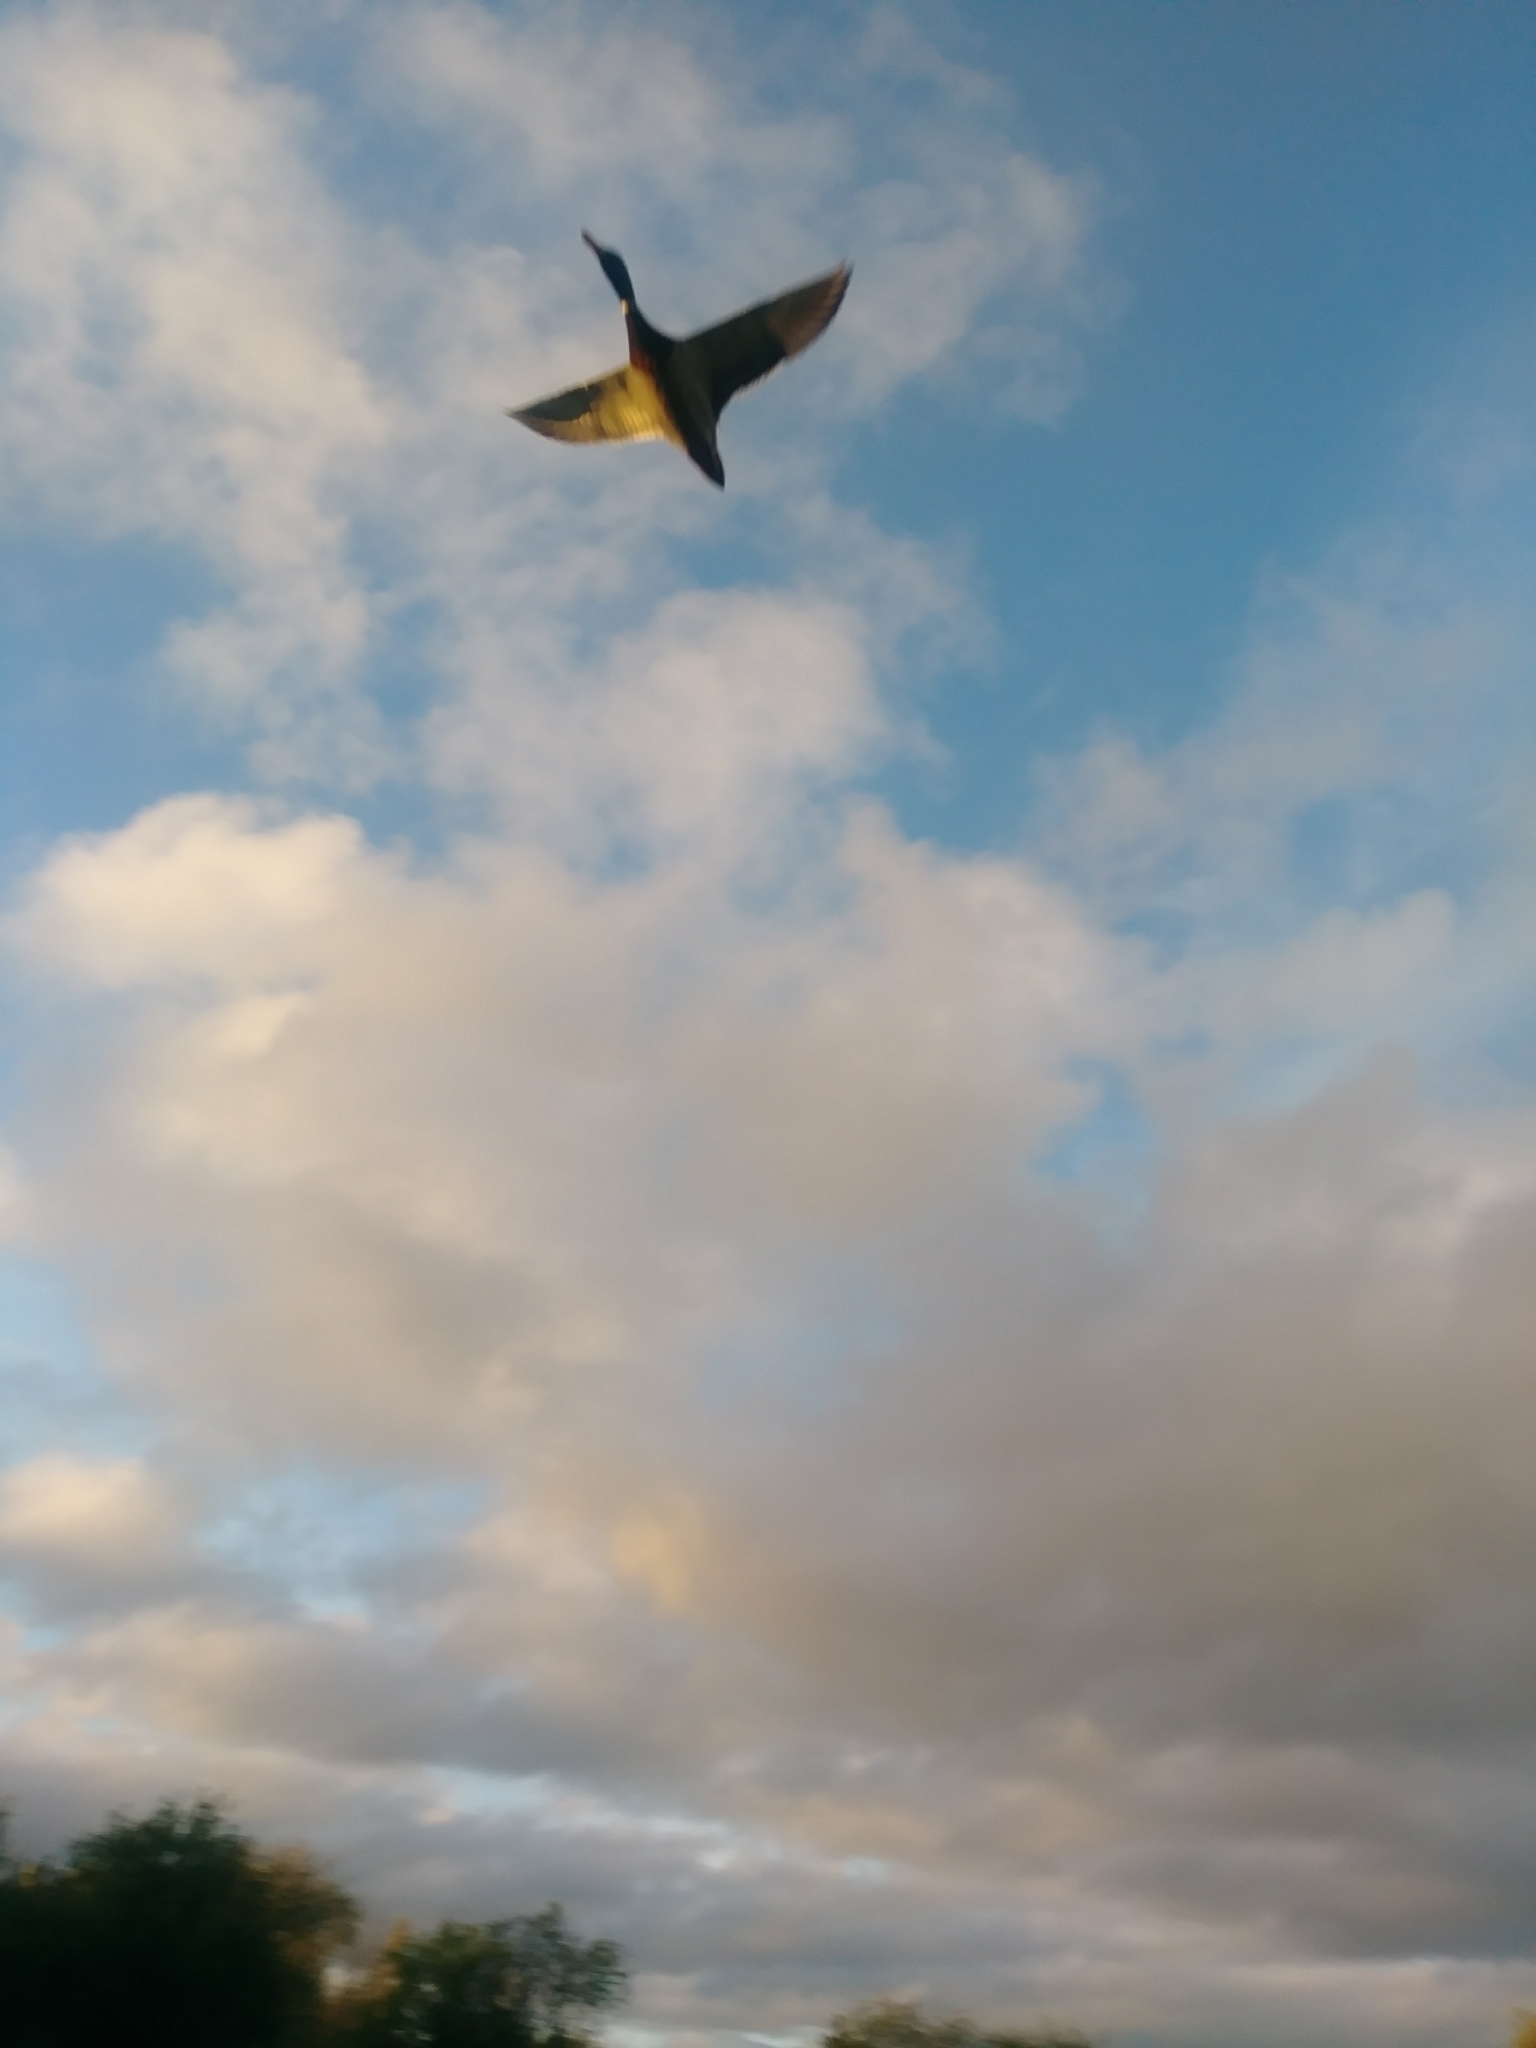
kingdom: Animalia
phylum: Chordata
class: Aves
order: Anseriformes
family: Anatidae
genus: Anas
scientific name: Anas platyrhynchos
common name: Mallard
